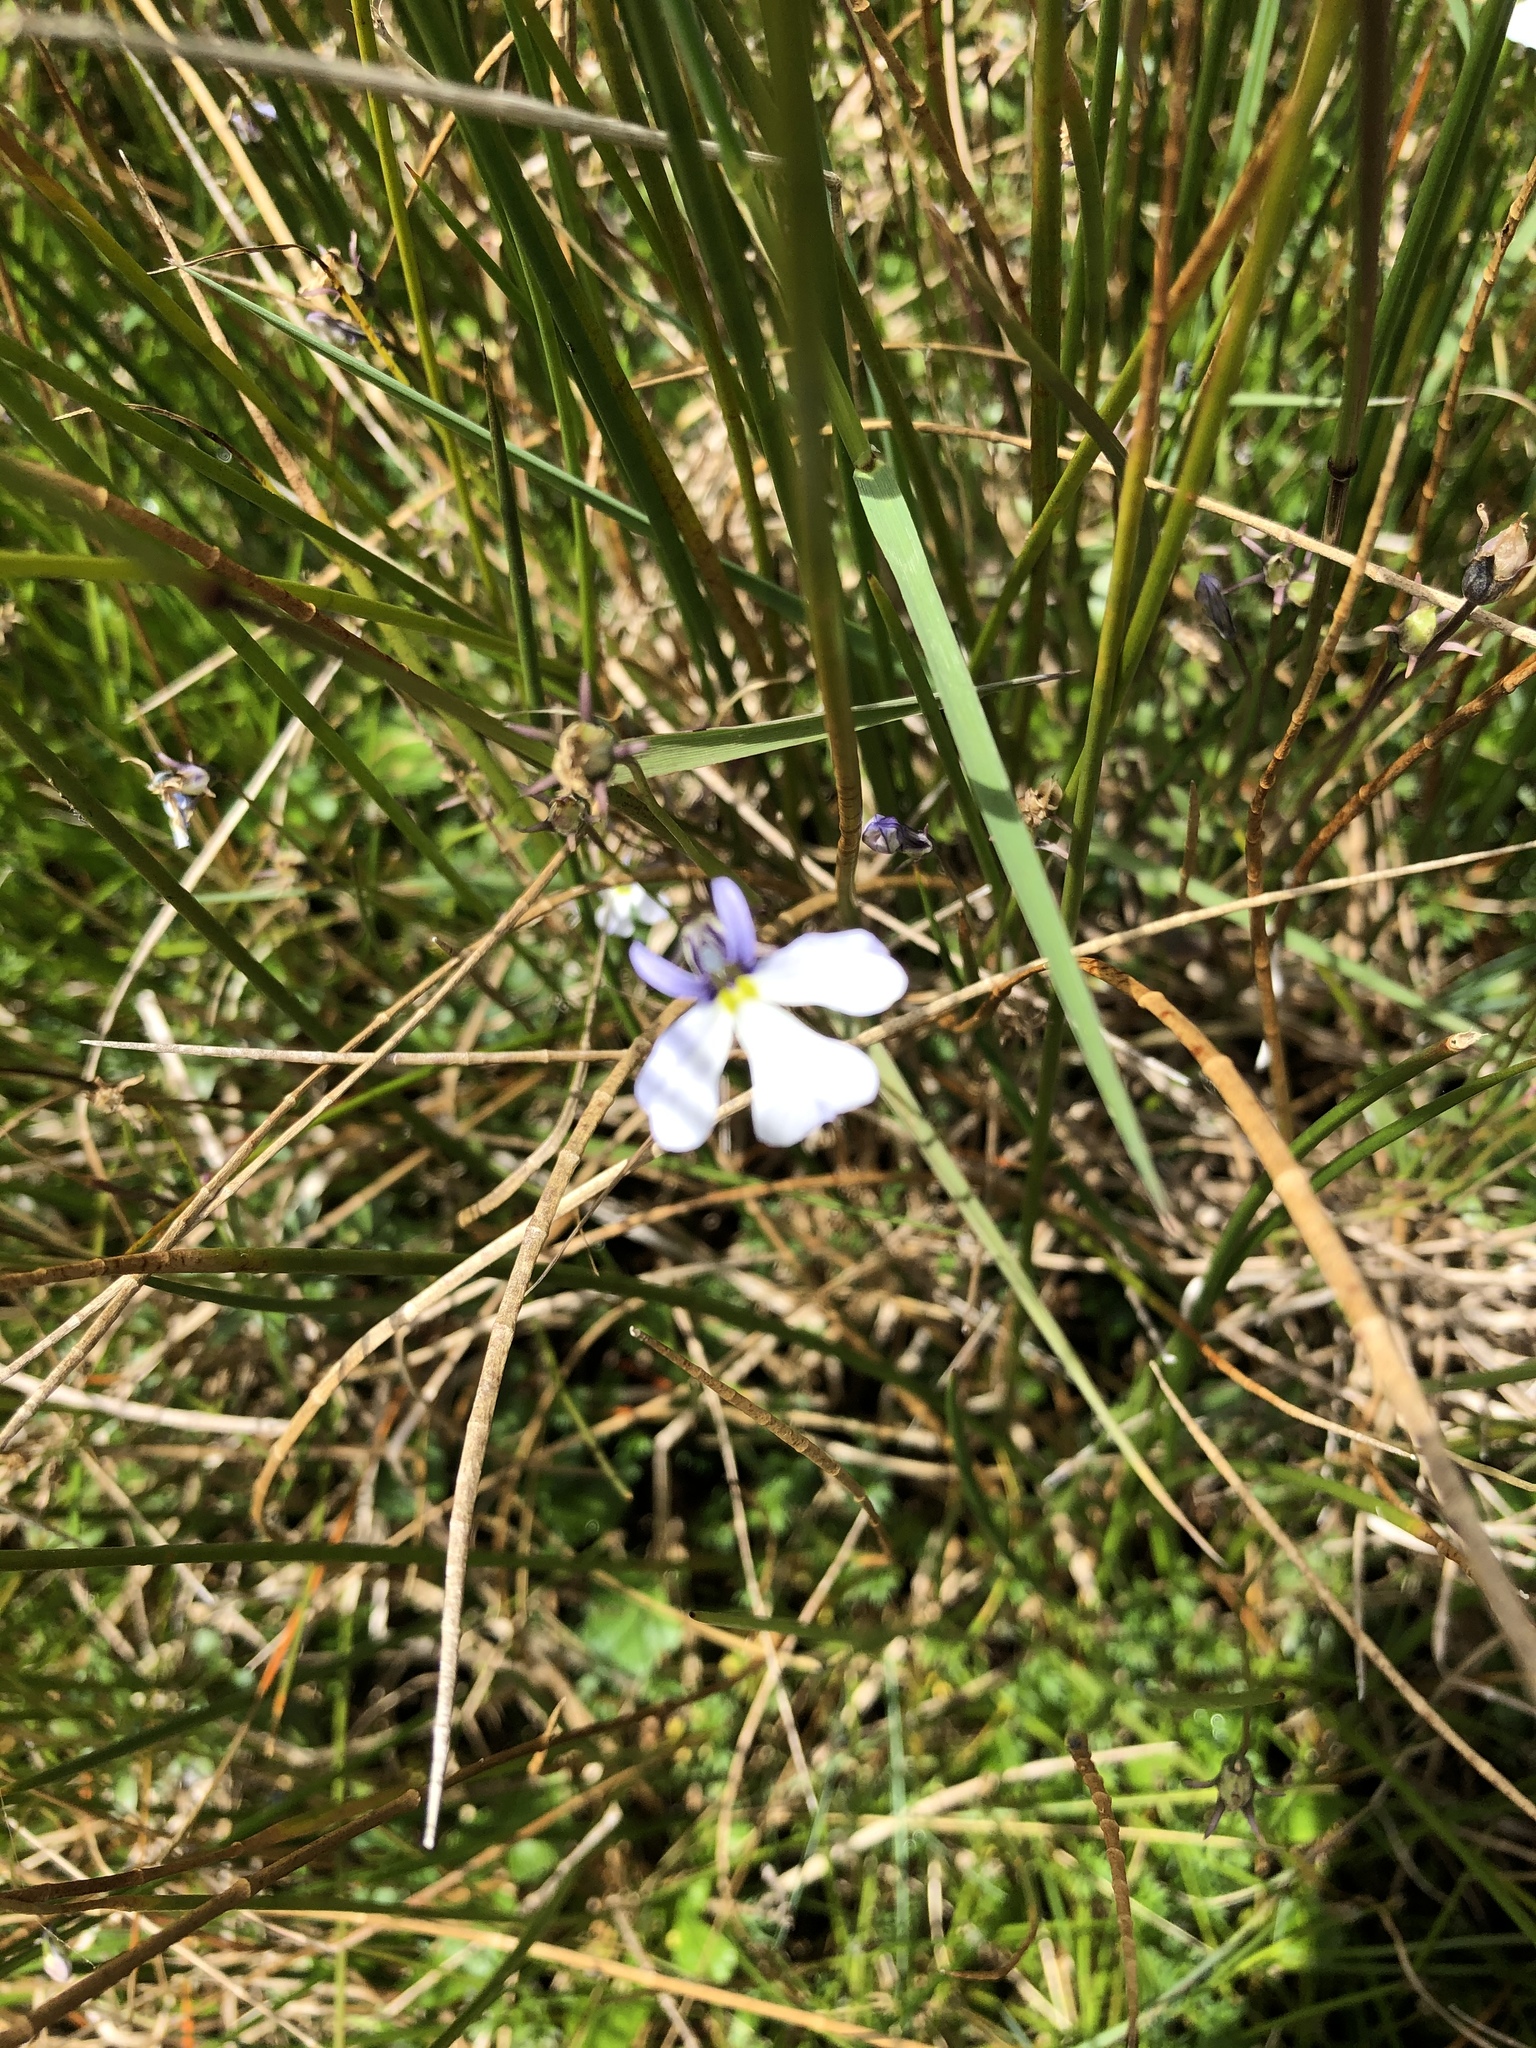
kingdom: Plantae
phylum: Tracheophyta
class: Magnoliopsida
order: Asterales
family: Campanulaceae
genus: Lobelia
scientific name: Lobelia tenera
